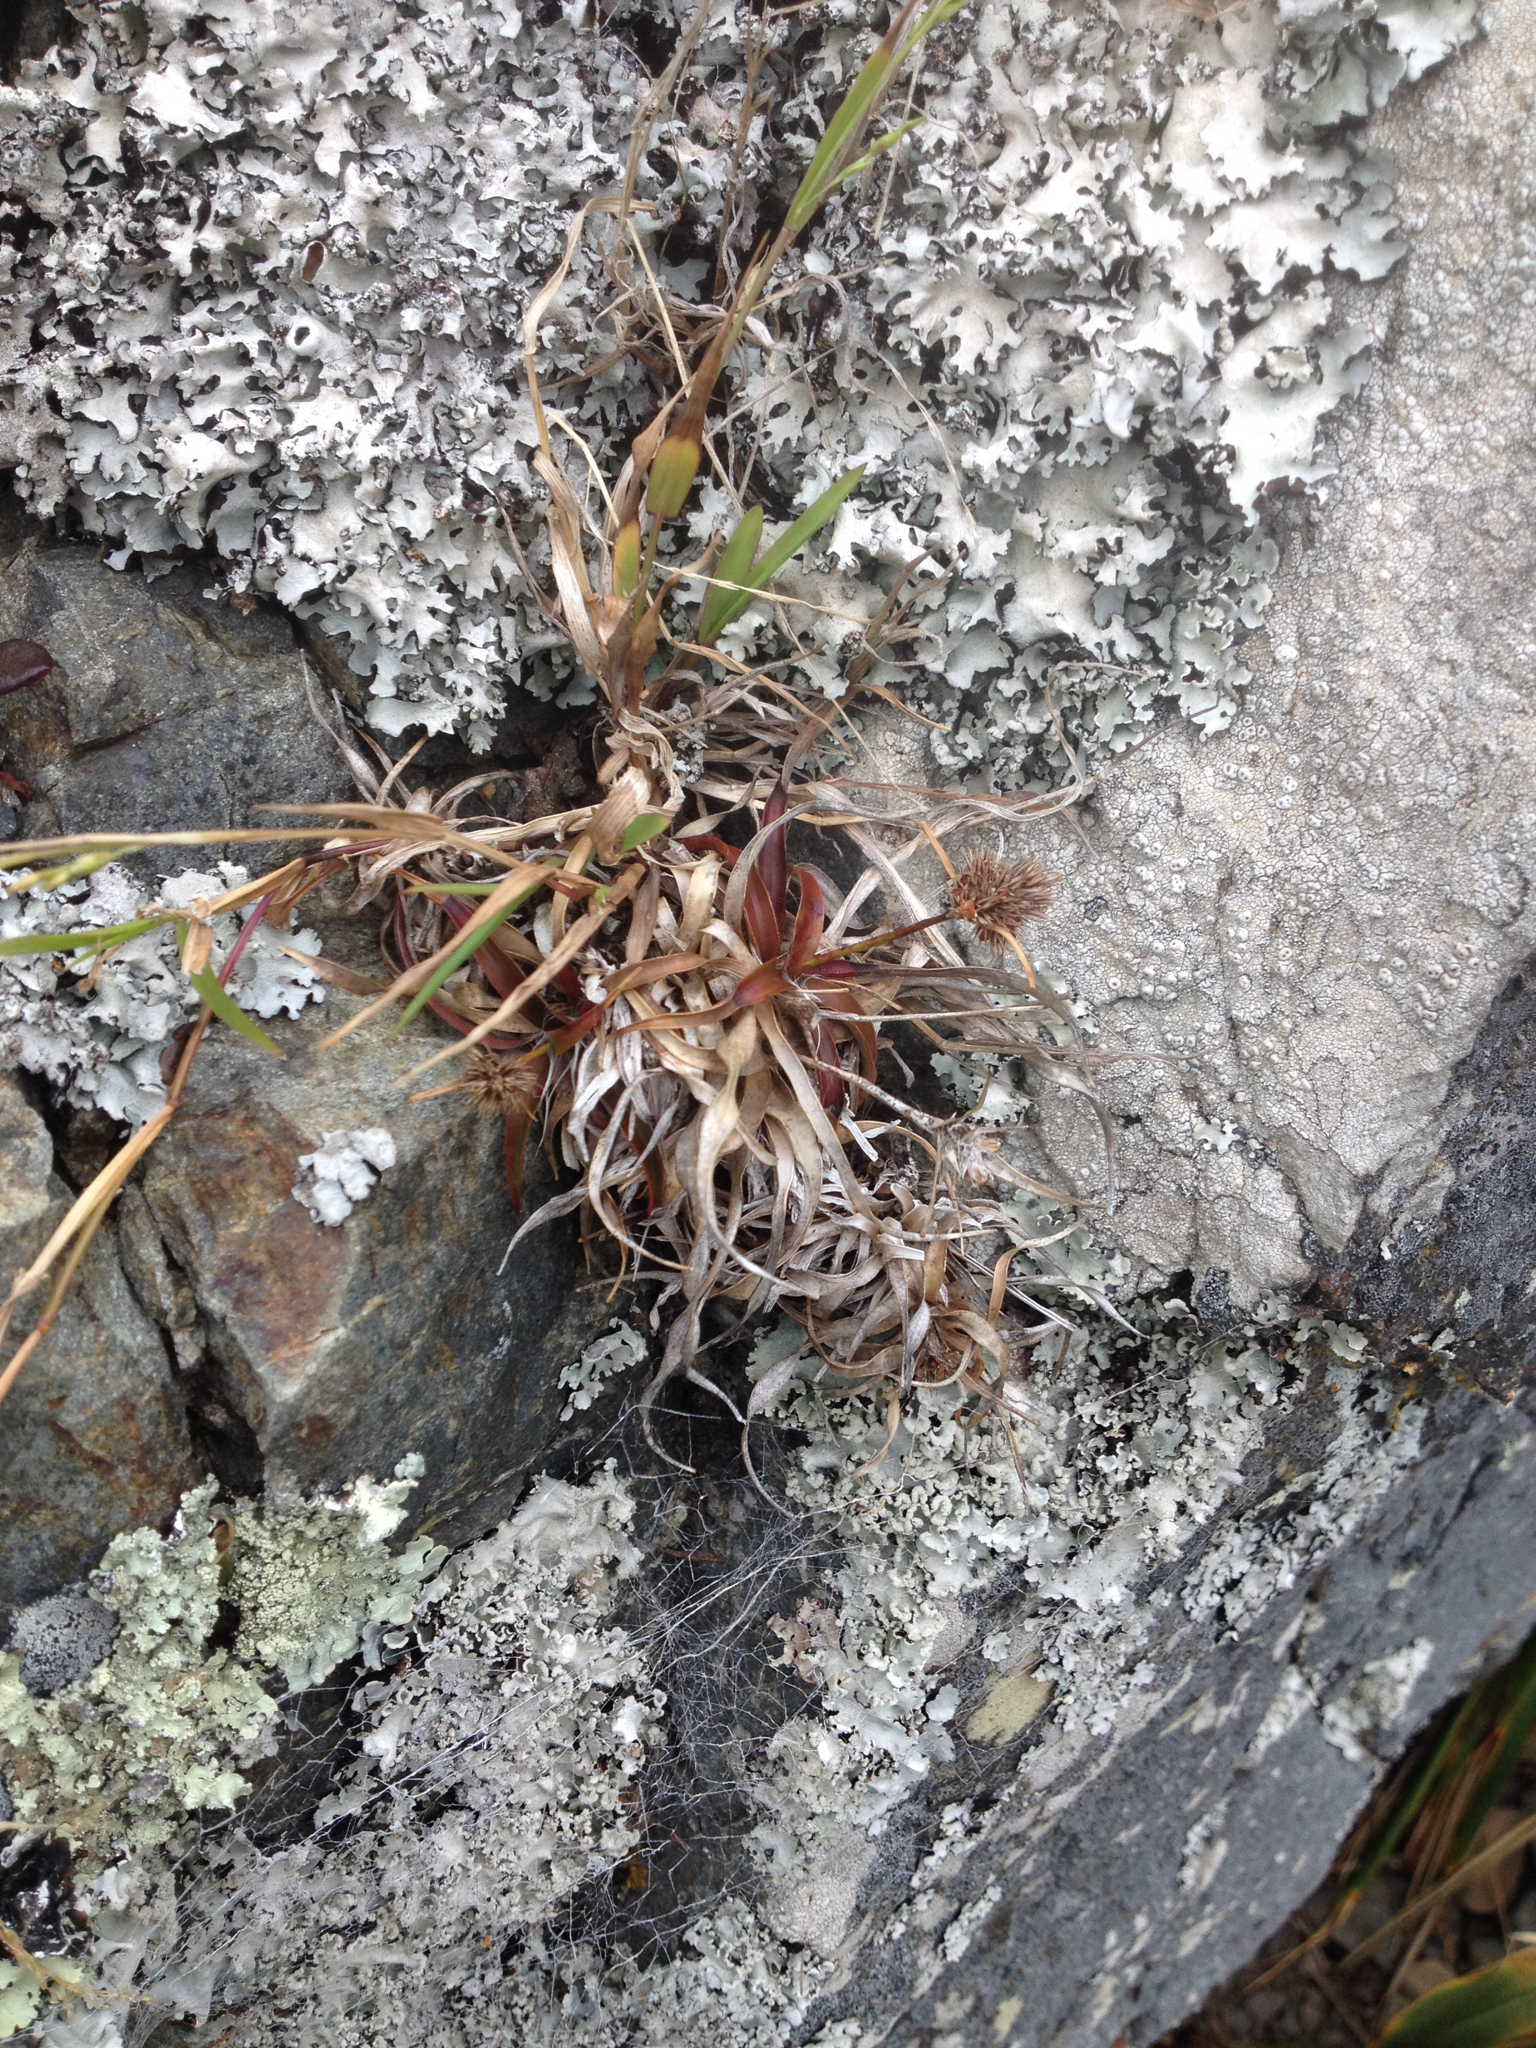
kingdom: Plantae
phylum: Tracheophyta
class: Liliopsida
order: Poales
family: Juncaceae
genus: Luzula
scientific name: Luzula banksiana
